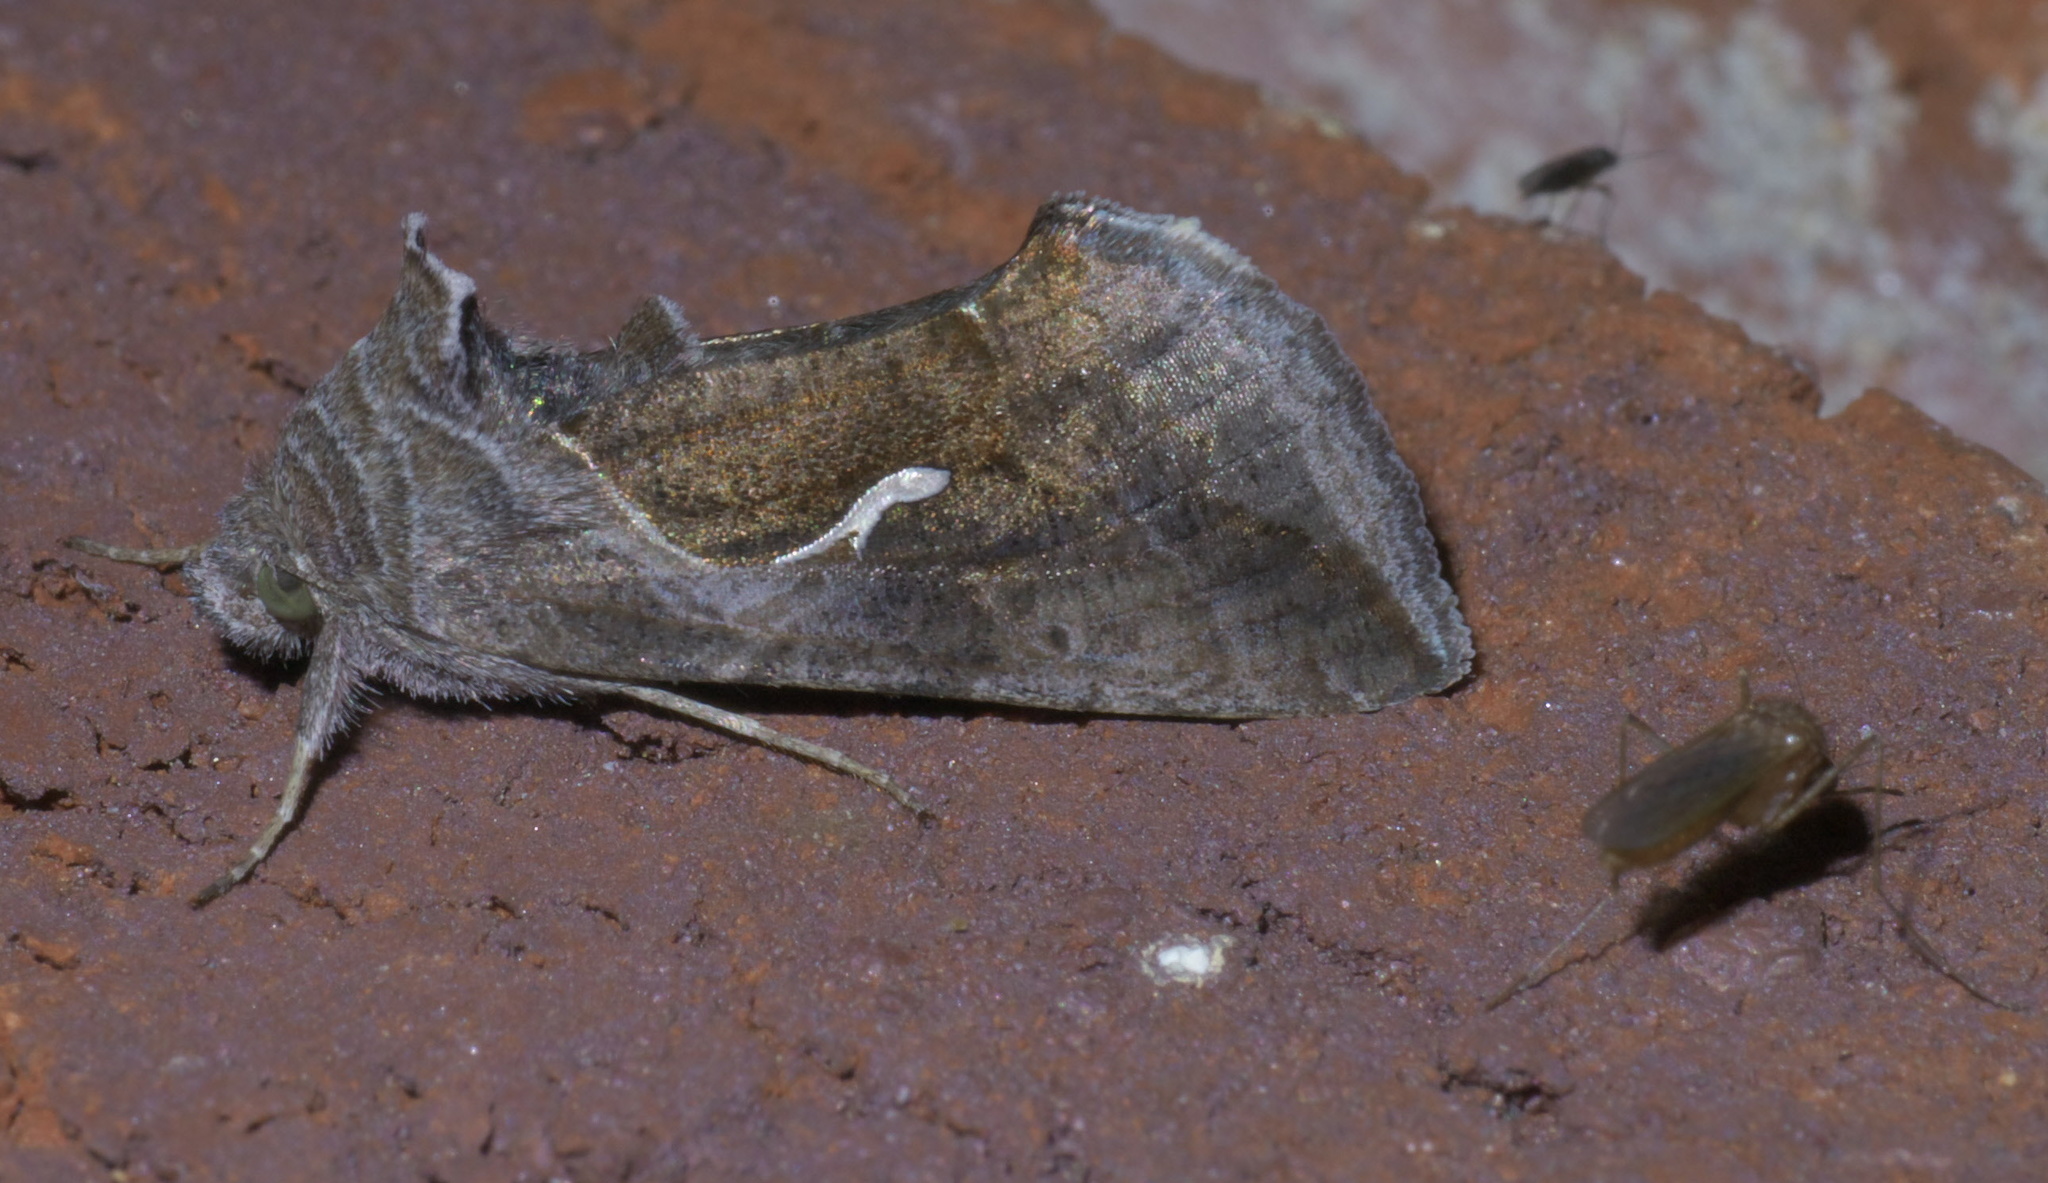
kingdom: Animalia
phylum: Arthropoda
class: Insecta
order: Lepidoptera
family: Noctuidae
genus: Anagrapha
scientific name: Anagrapha falcifera
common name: Celery looper
